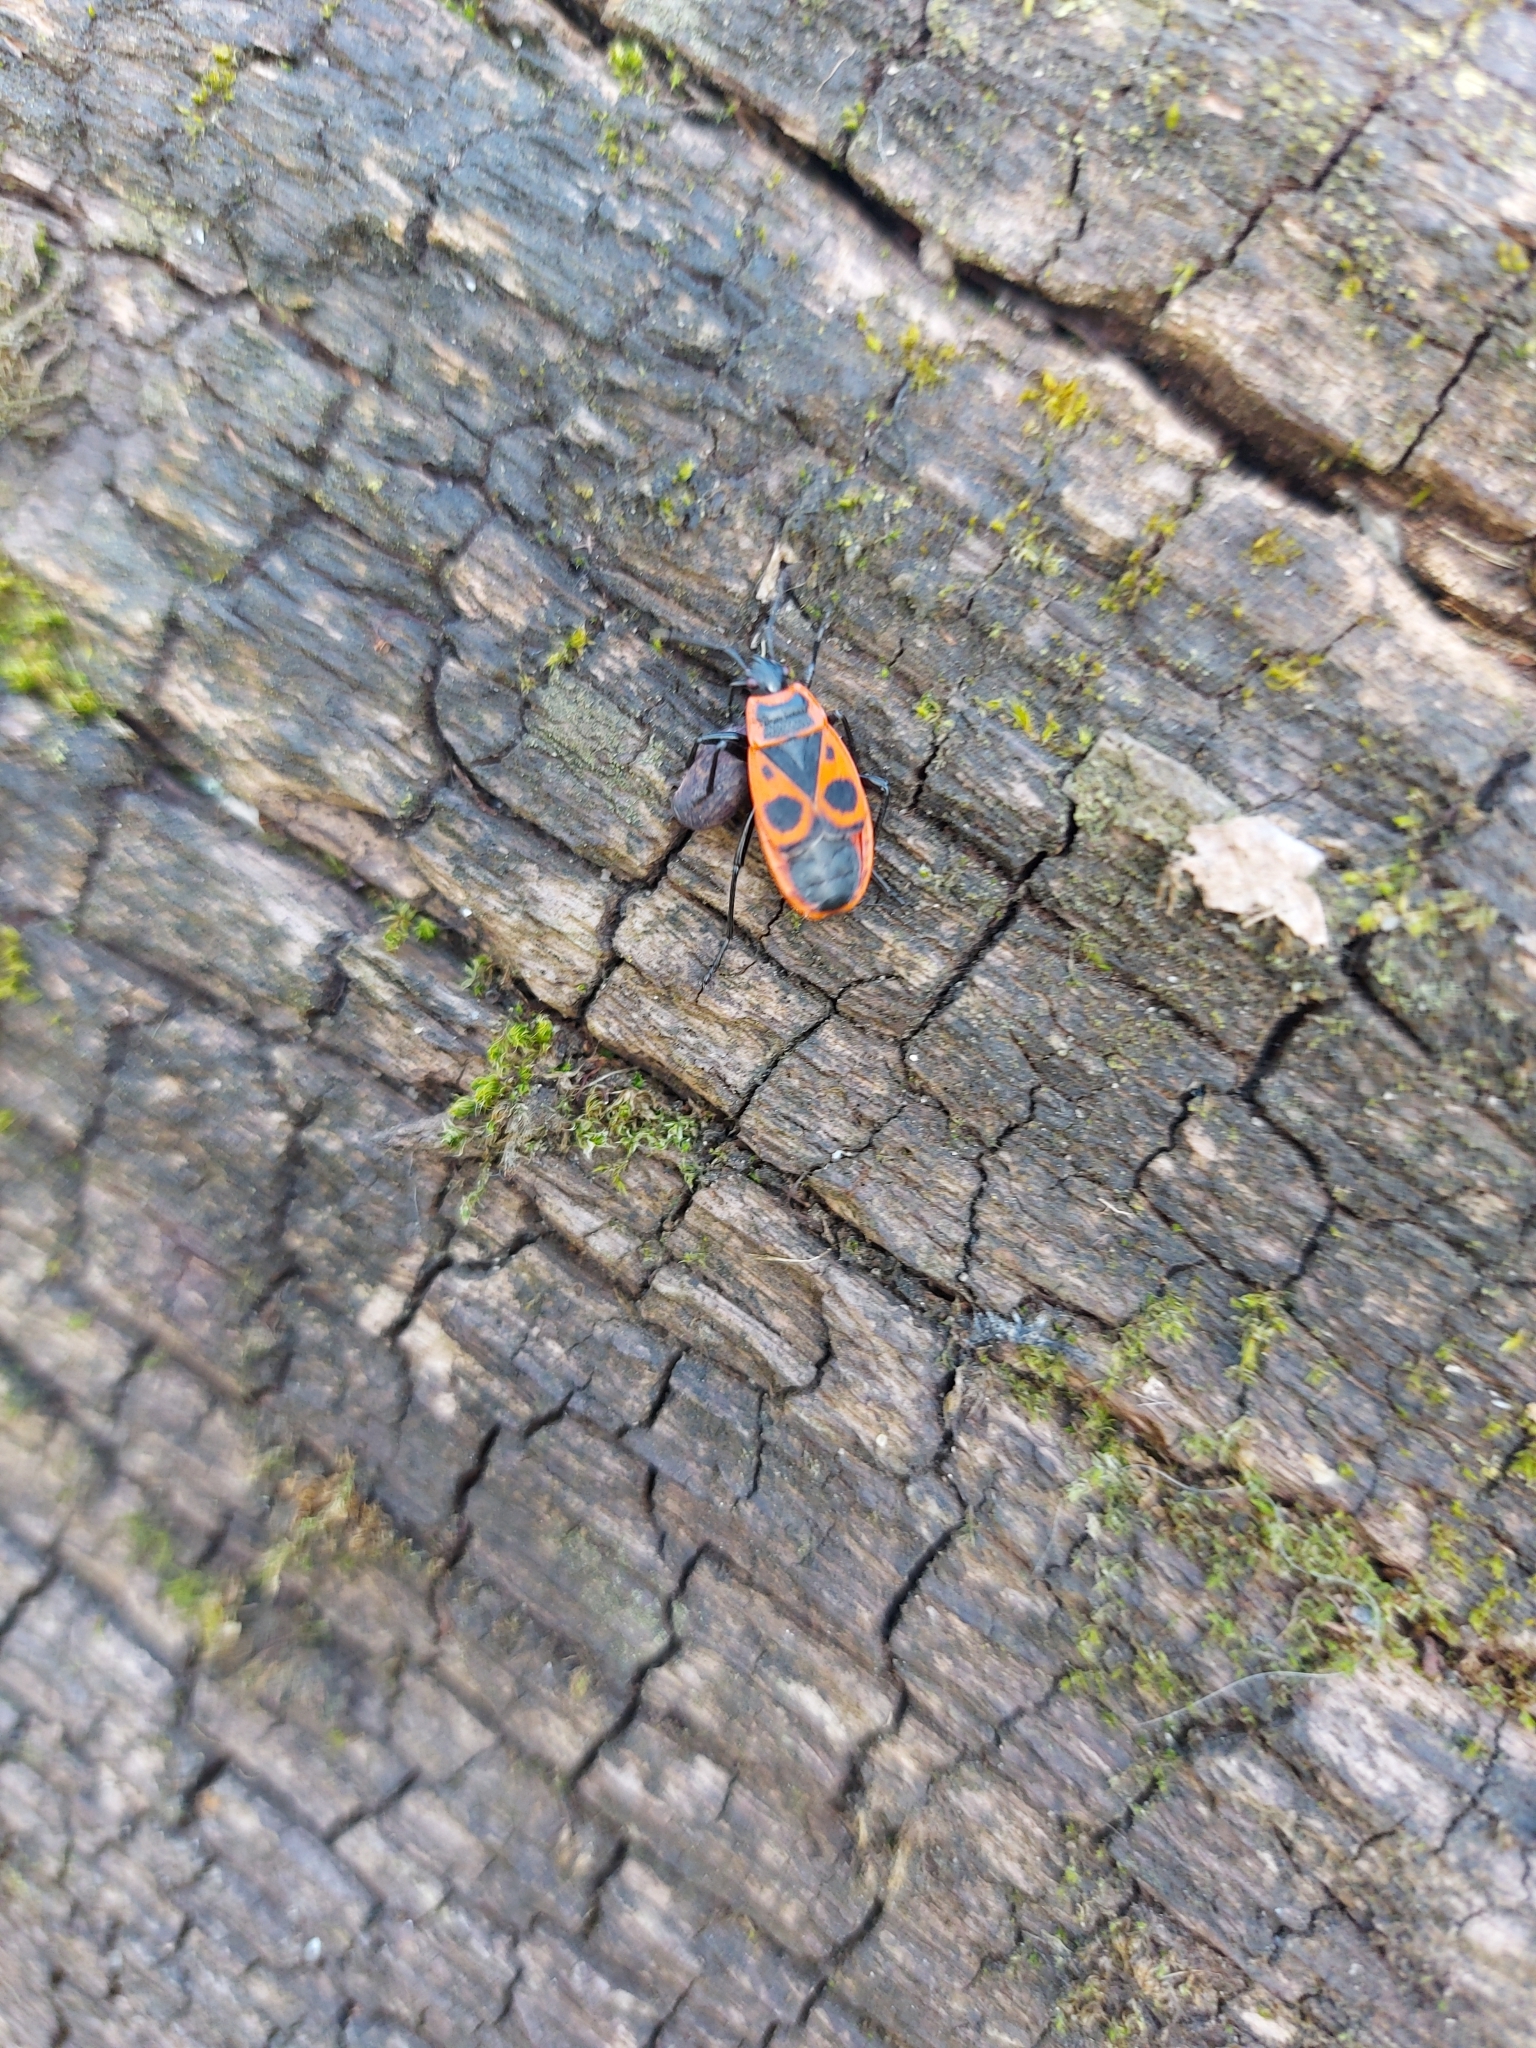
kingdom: Animalia
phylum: Arthropoda
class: Insecta
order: Hemiptera
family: Pyrrhocoridae
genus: Pyrrhocoris
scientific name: Pyrrhocoris apterus
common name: Firebug
